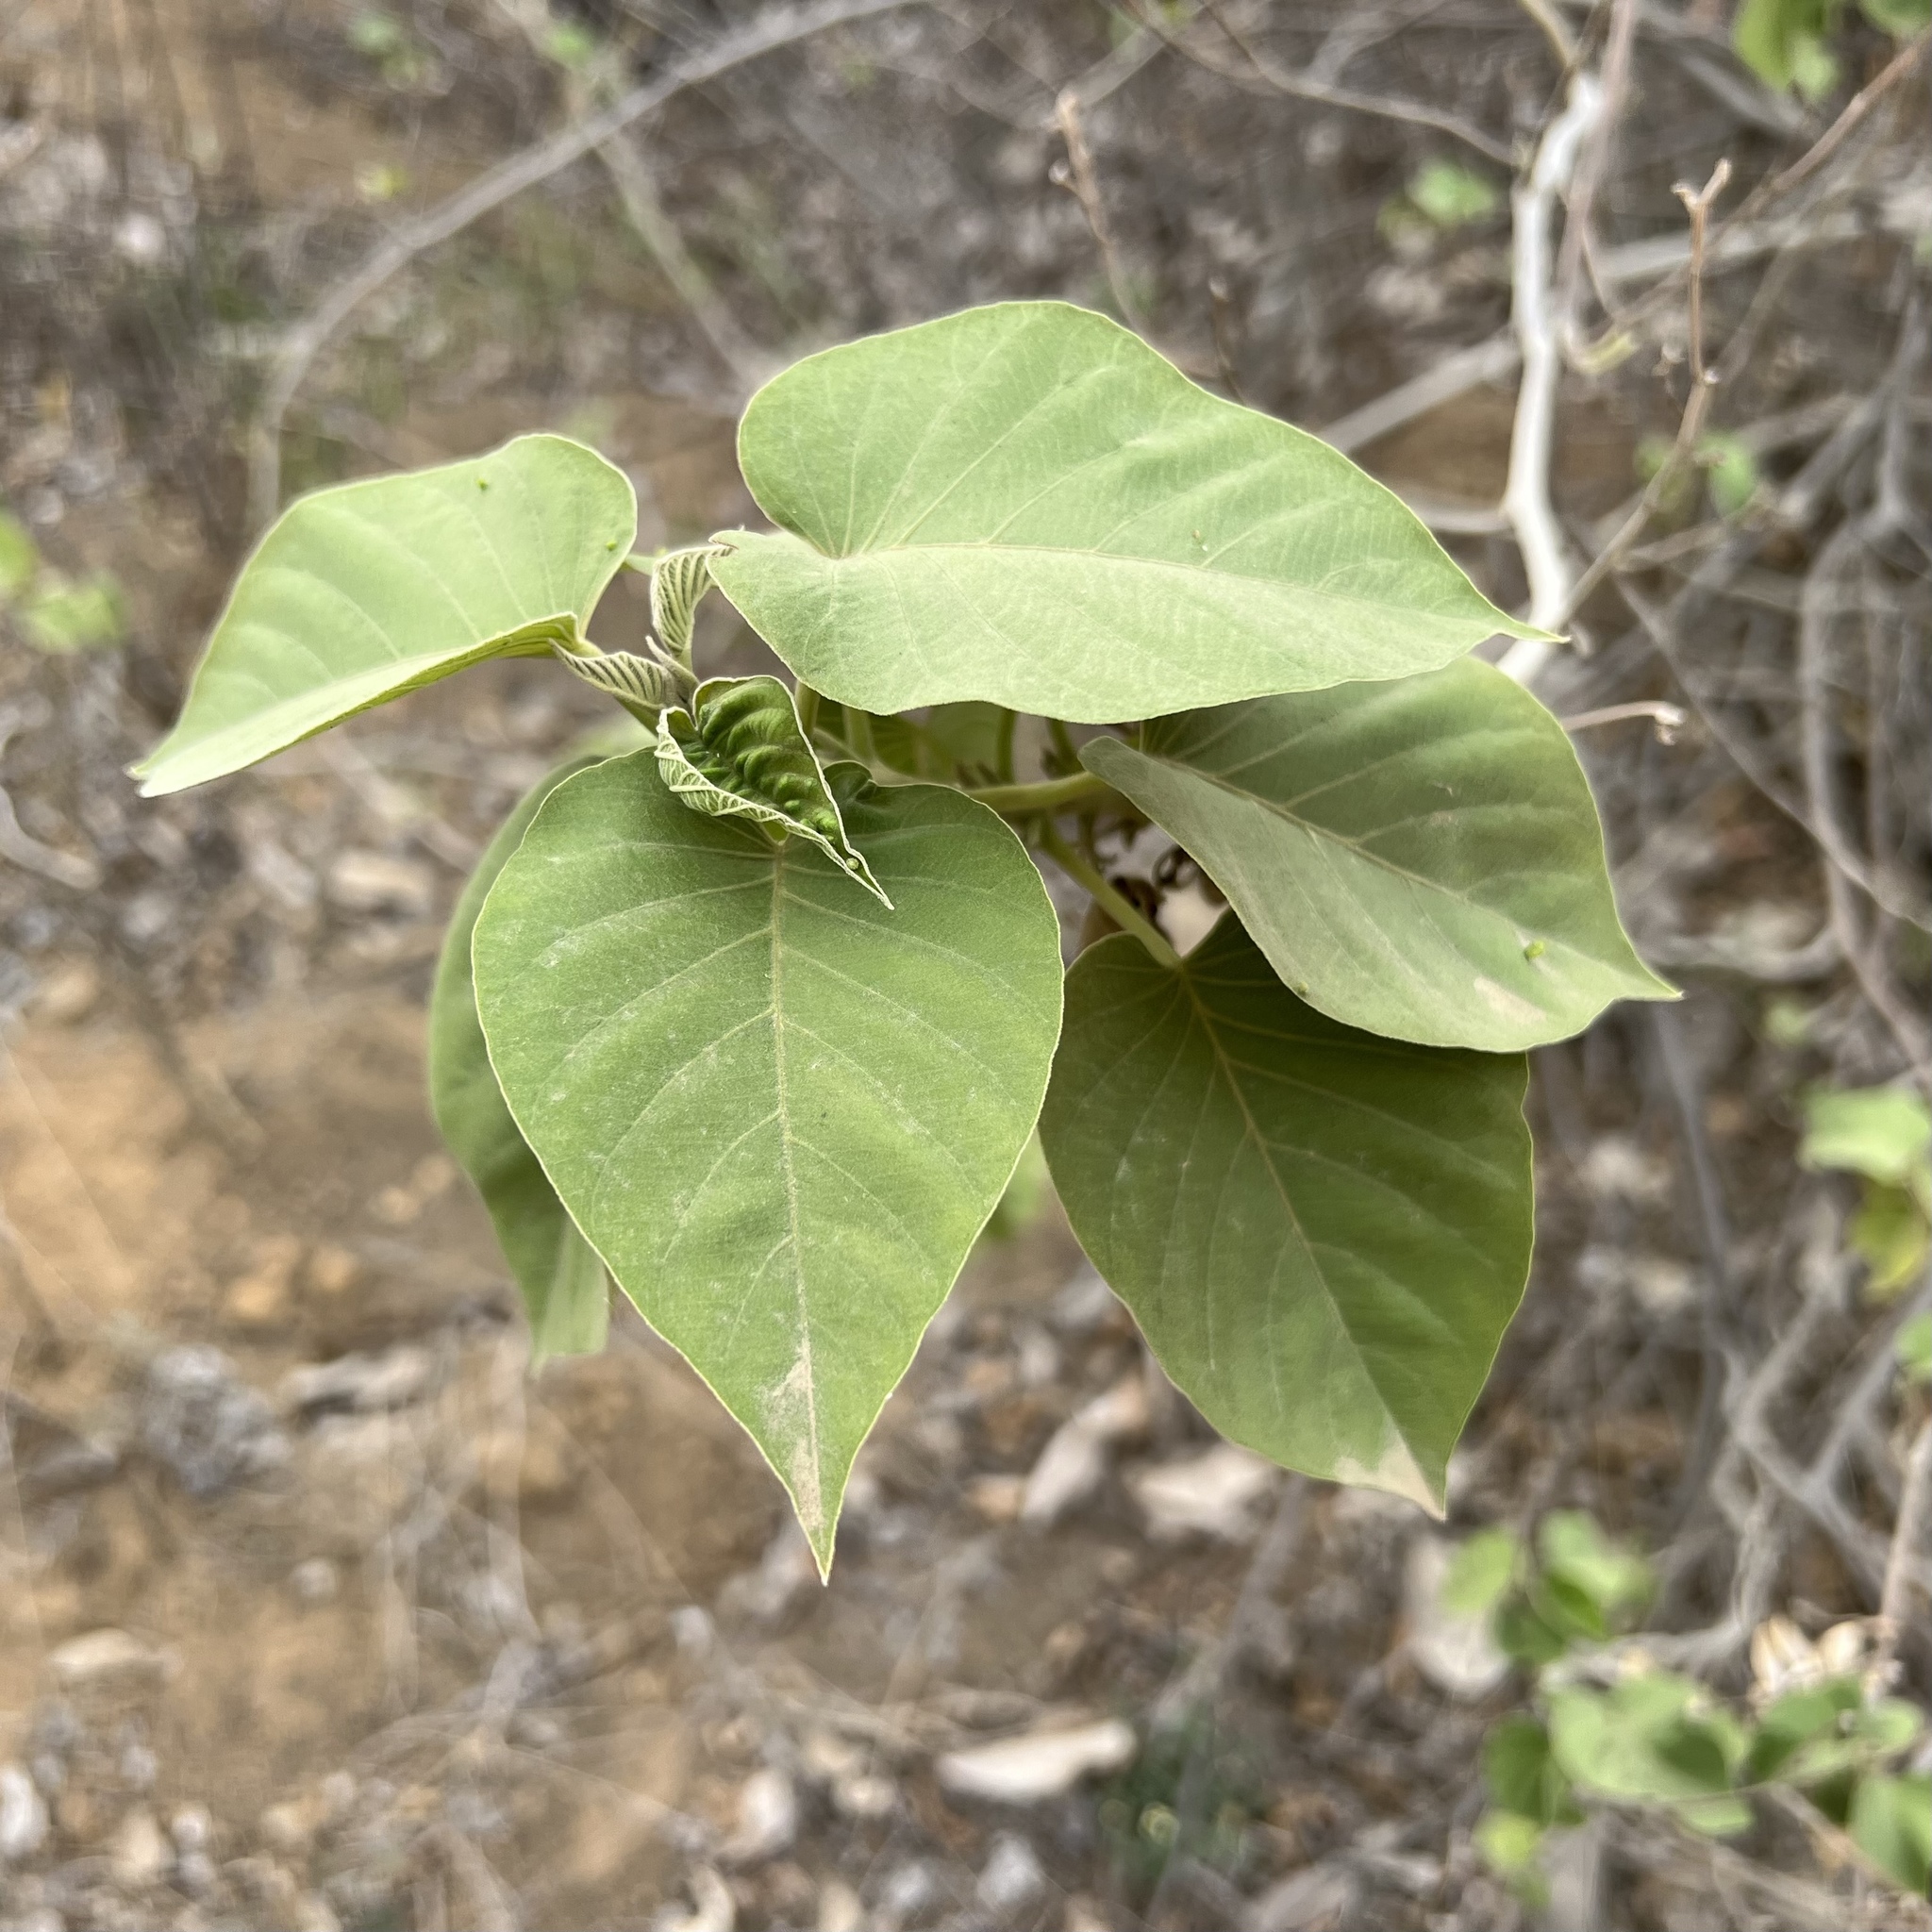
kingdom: Plantae
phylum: Tracheophyta
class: Magnoliopsida
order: Solanales
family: Convolvulaceae
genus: Ipomoea
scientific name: Ipomoea carnea
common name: Morning-glory
